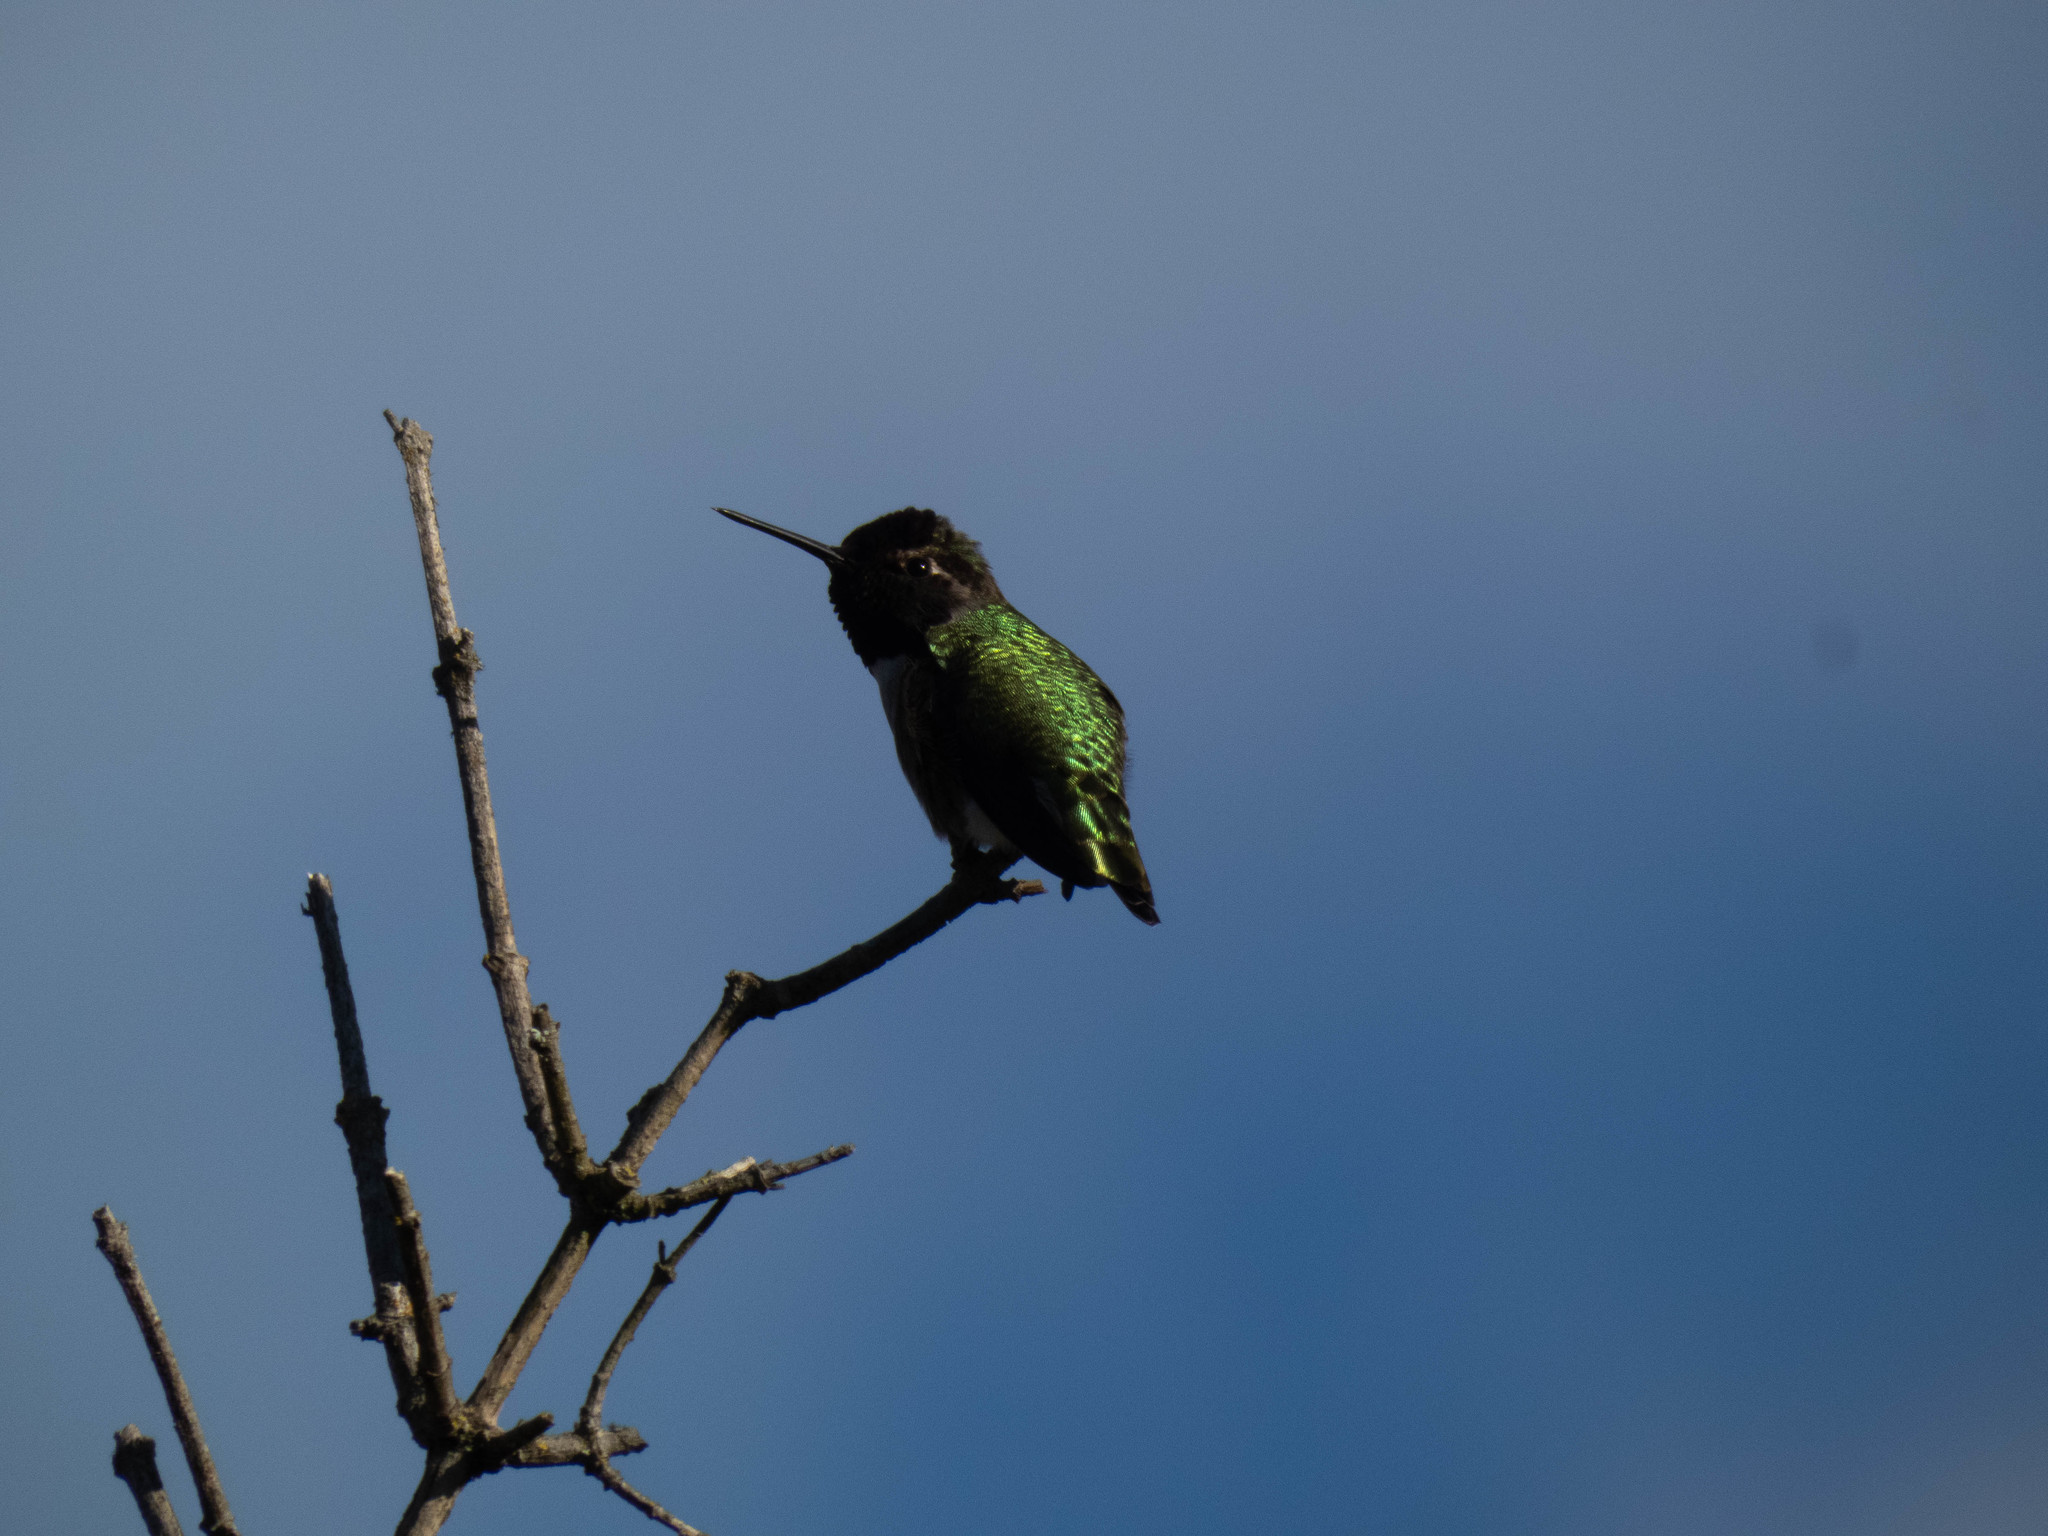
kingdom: Animalia
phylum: Chordata
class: Aves
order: Apodiformes
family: Trochilidae
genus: Calypte
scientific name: Calypte anna
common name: Anna's hummingbird
